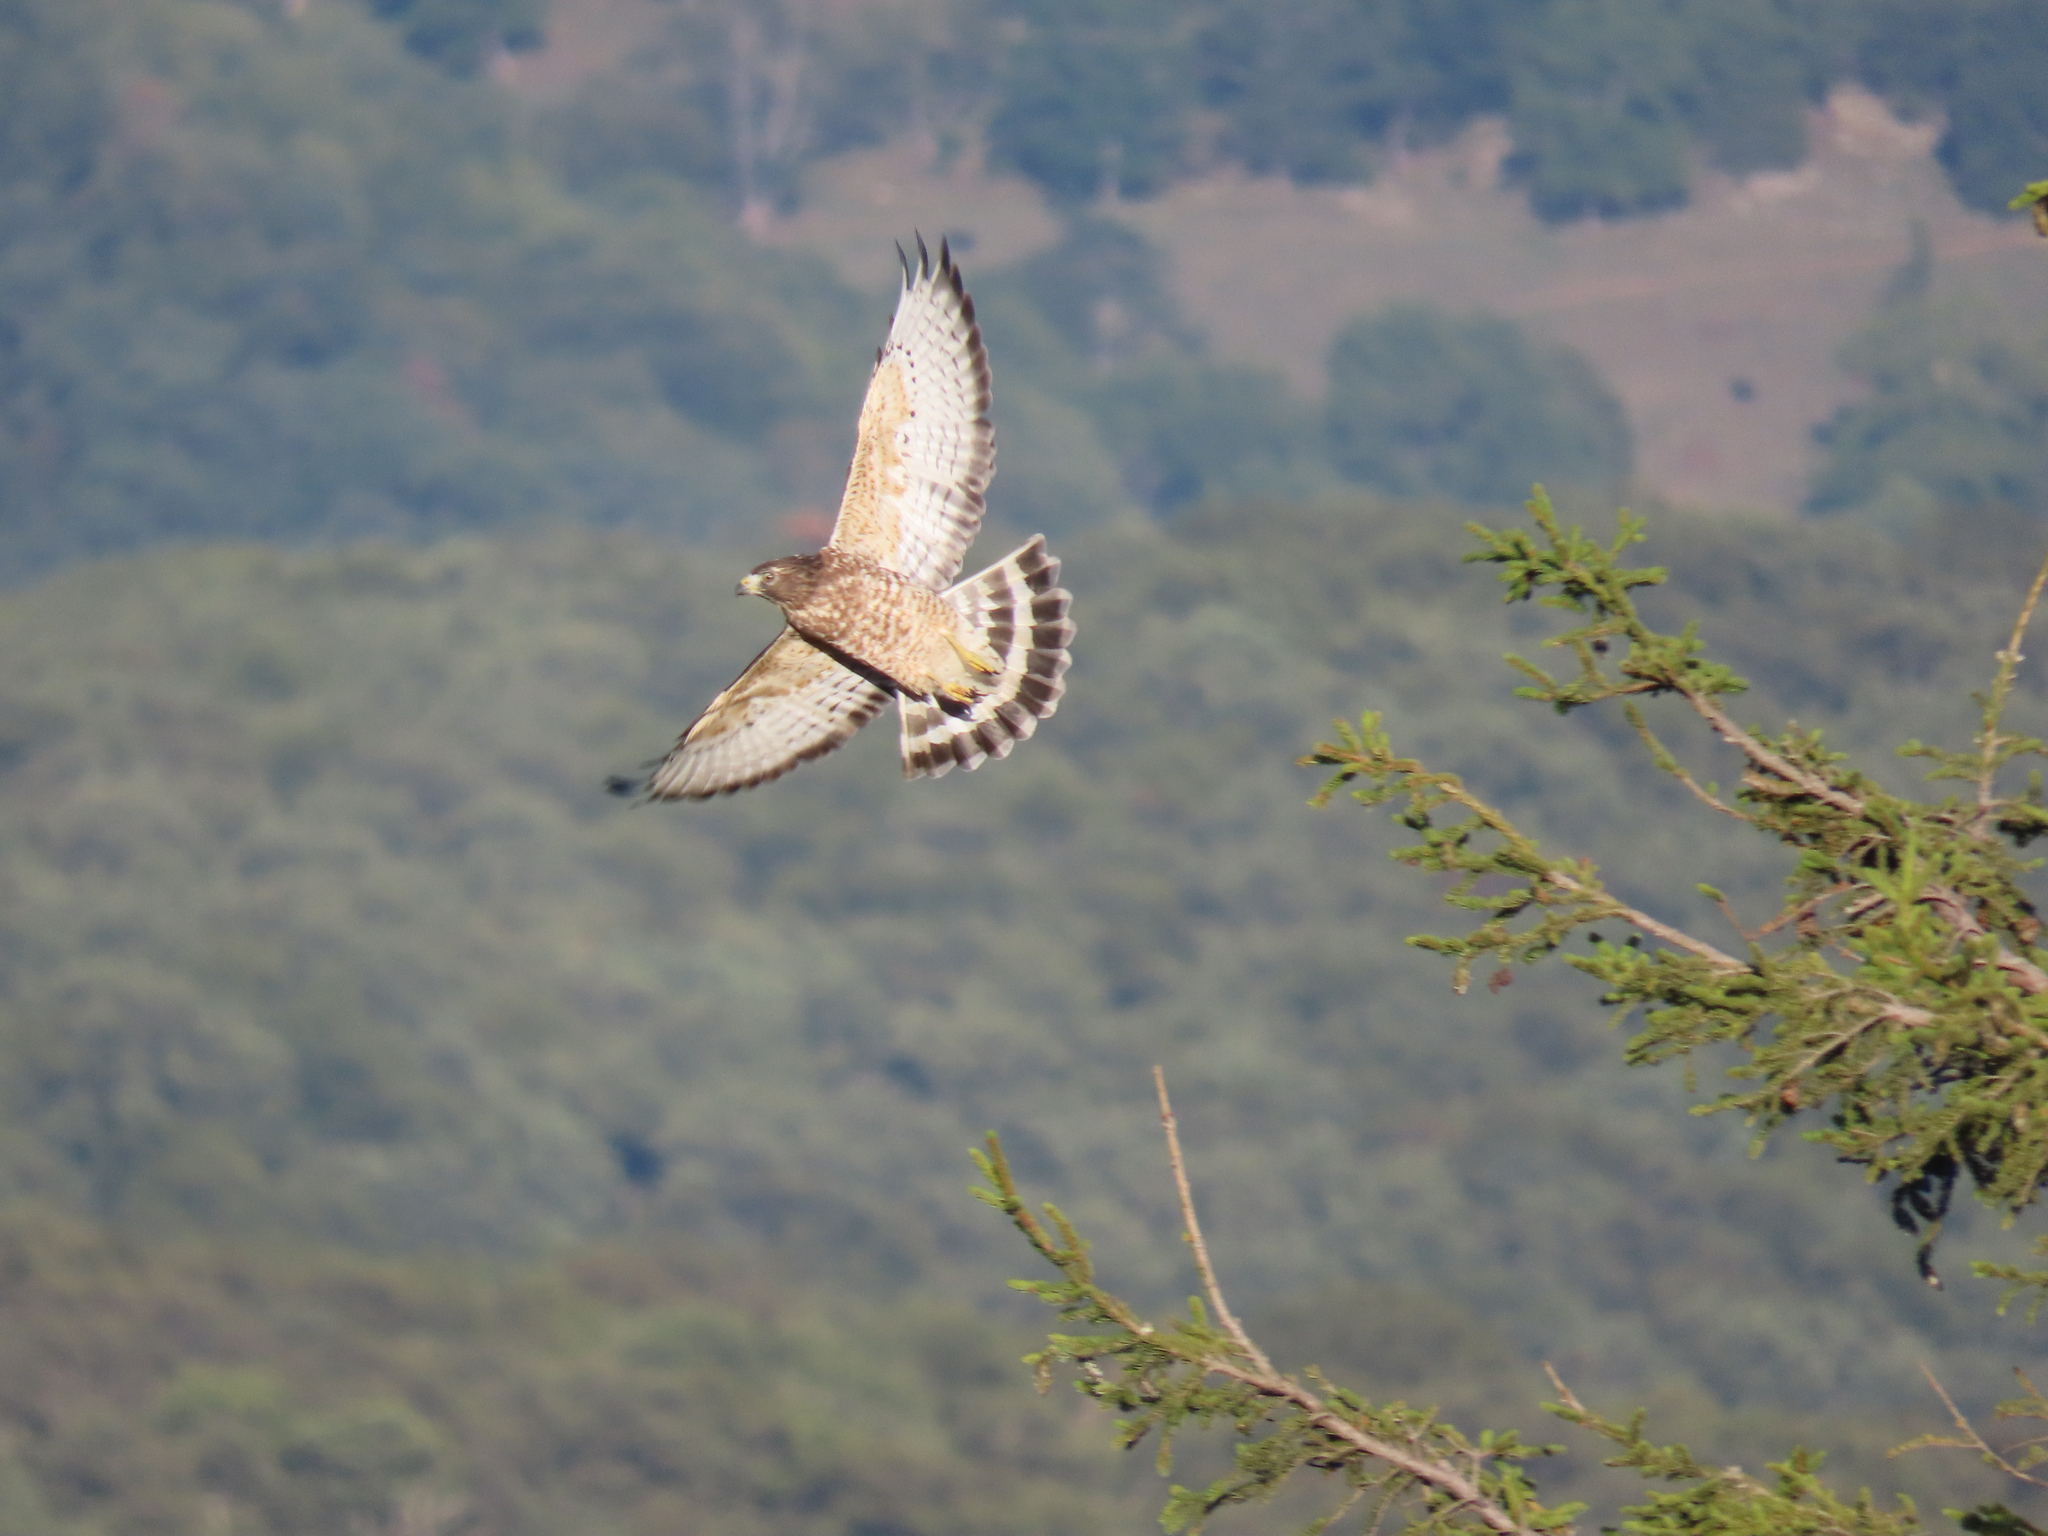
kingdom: Animalia
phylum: Chordata
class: Aves
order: Accipitriformes
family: Accipitridae
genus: Buteo
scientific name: Buteo platypterus
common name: Broad-winged hawk
